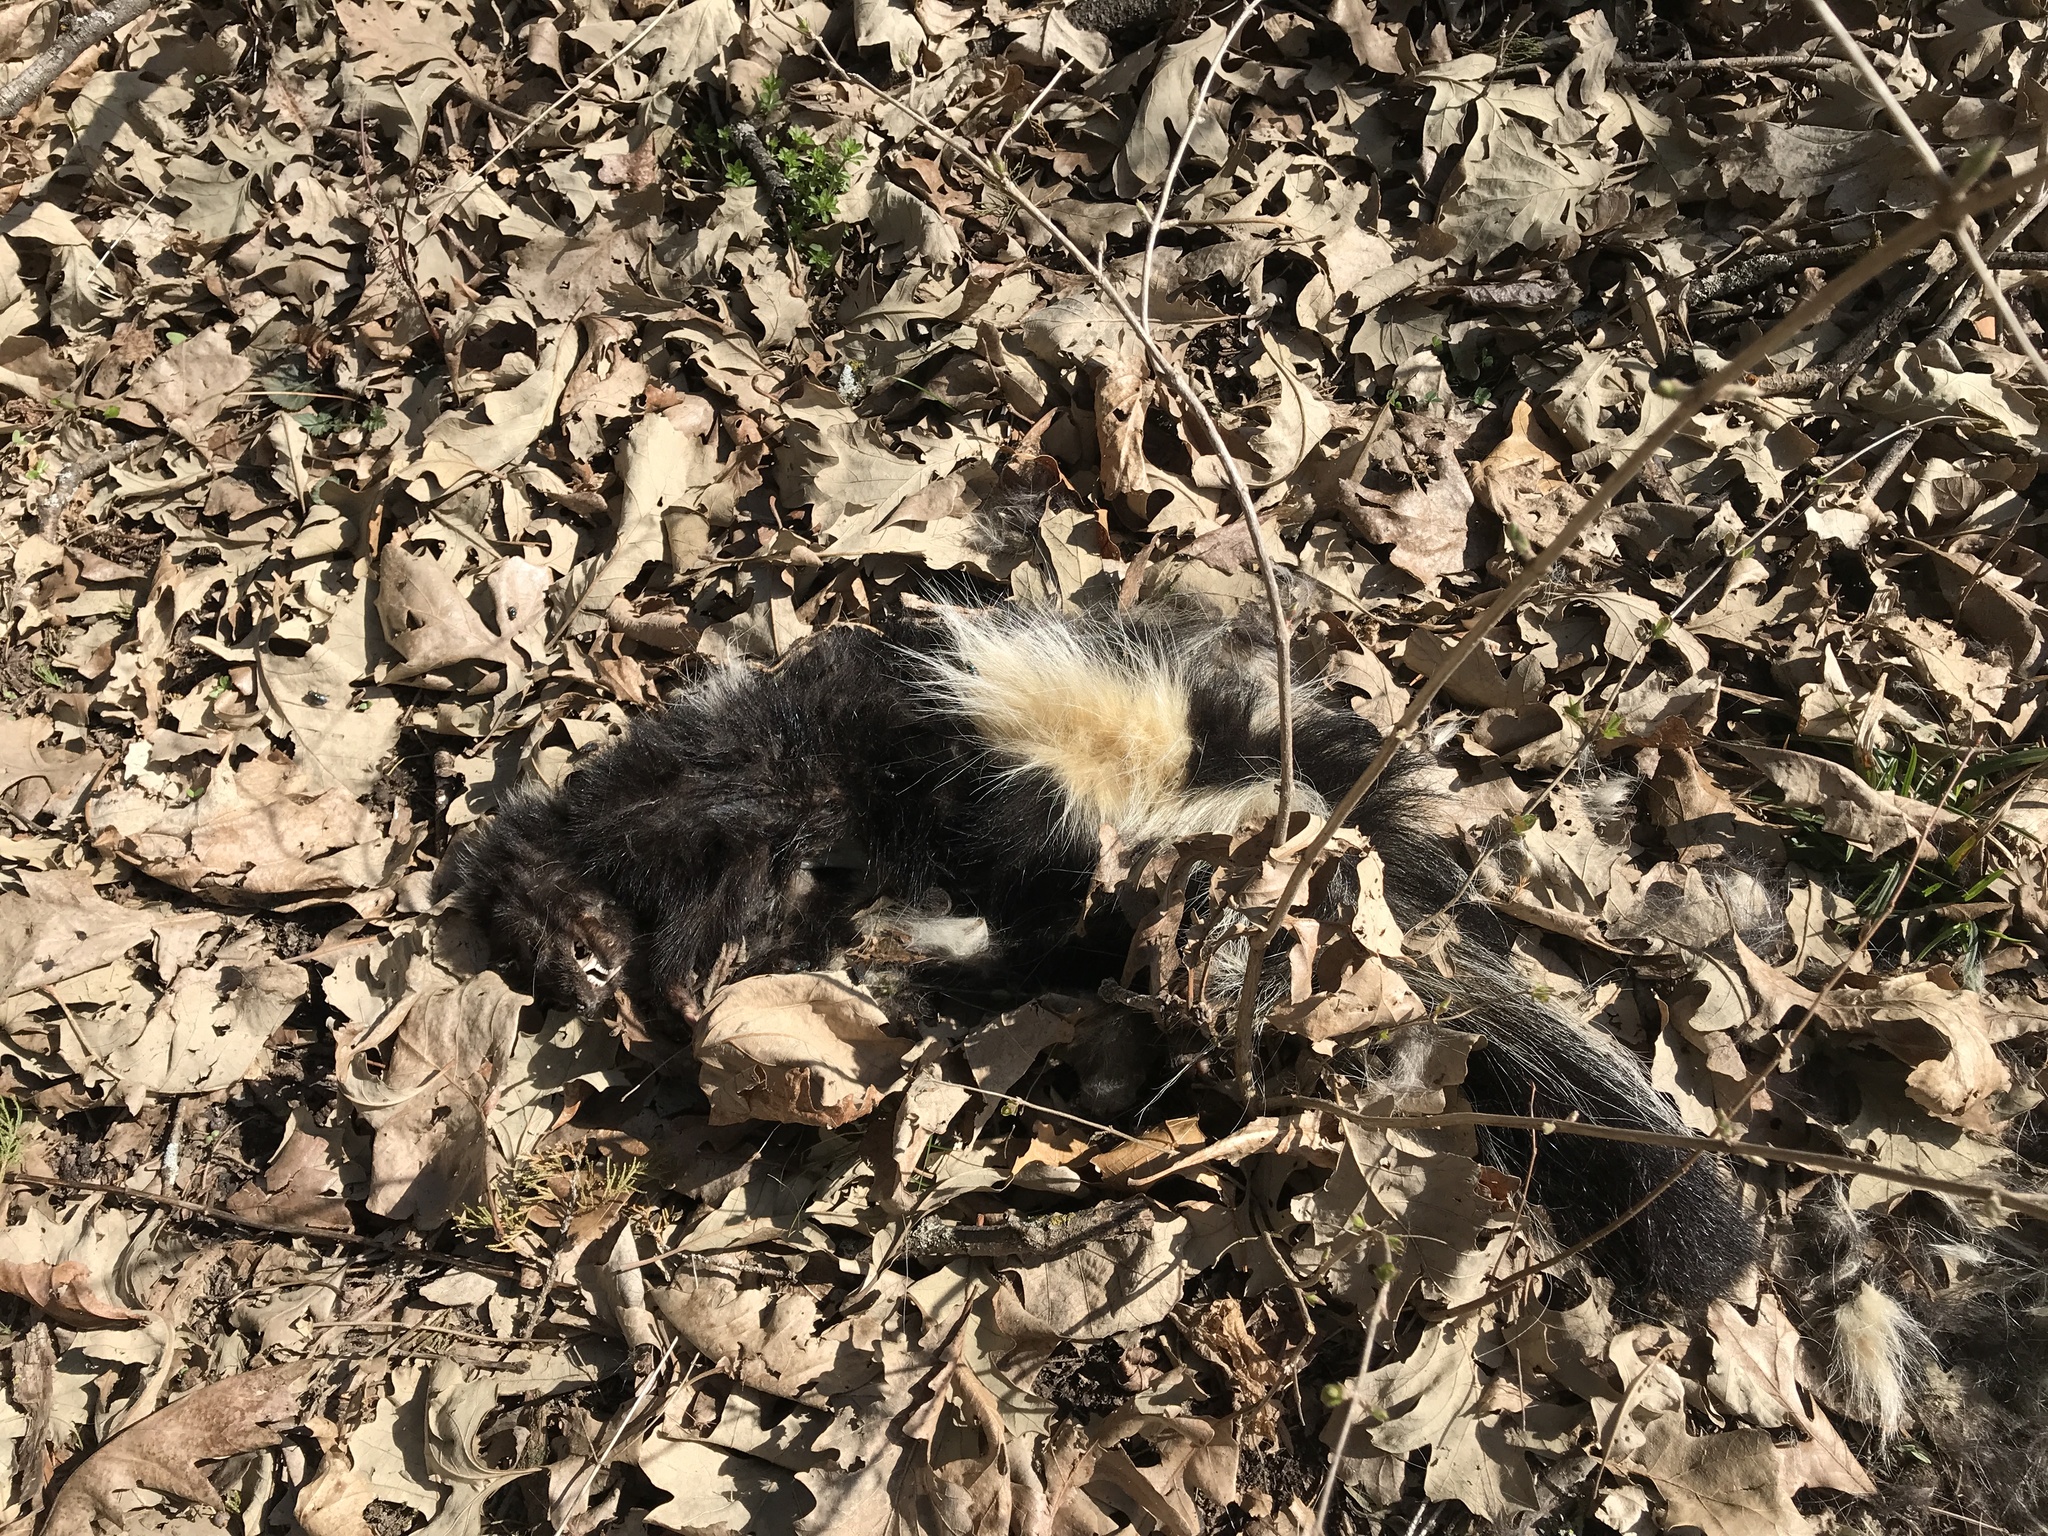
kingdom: Animalia
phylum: Chordata
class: Mammalia
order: Carnivora
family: Mephitidae
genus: Mephitis
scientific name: Mephitis mephitis
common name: Striped skunk
